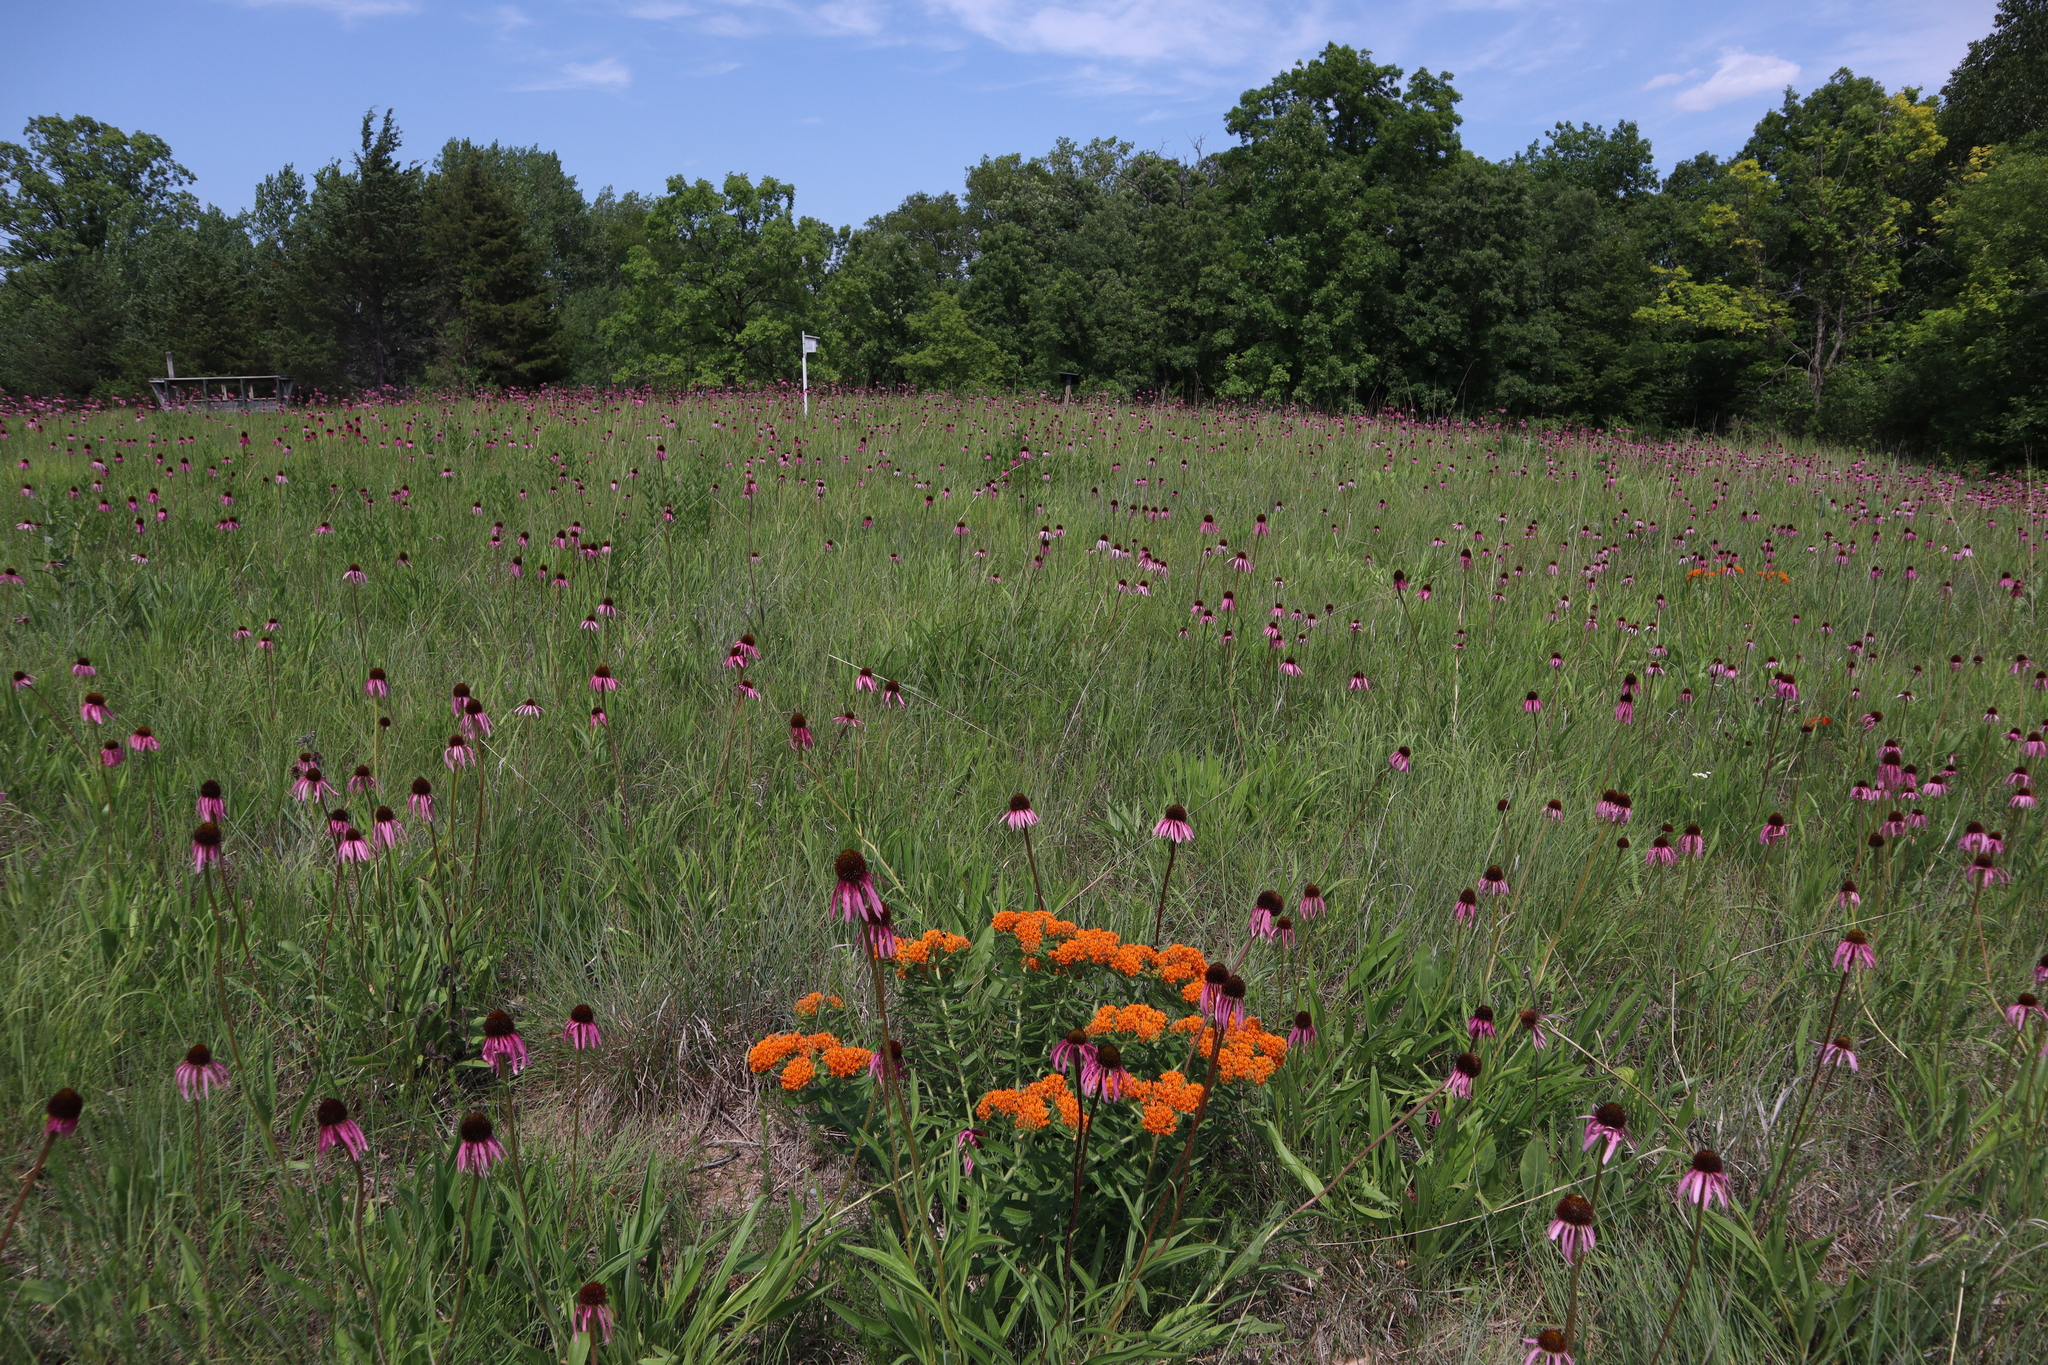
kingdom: Plantae
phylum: Tracheophyta
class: Magnoliopsida
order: Gentianales
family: Apocynaceae
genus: Asclepias
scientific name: Asclepias tuberosa
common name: Butterfly milkweed
